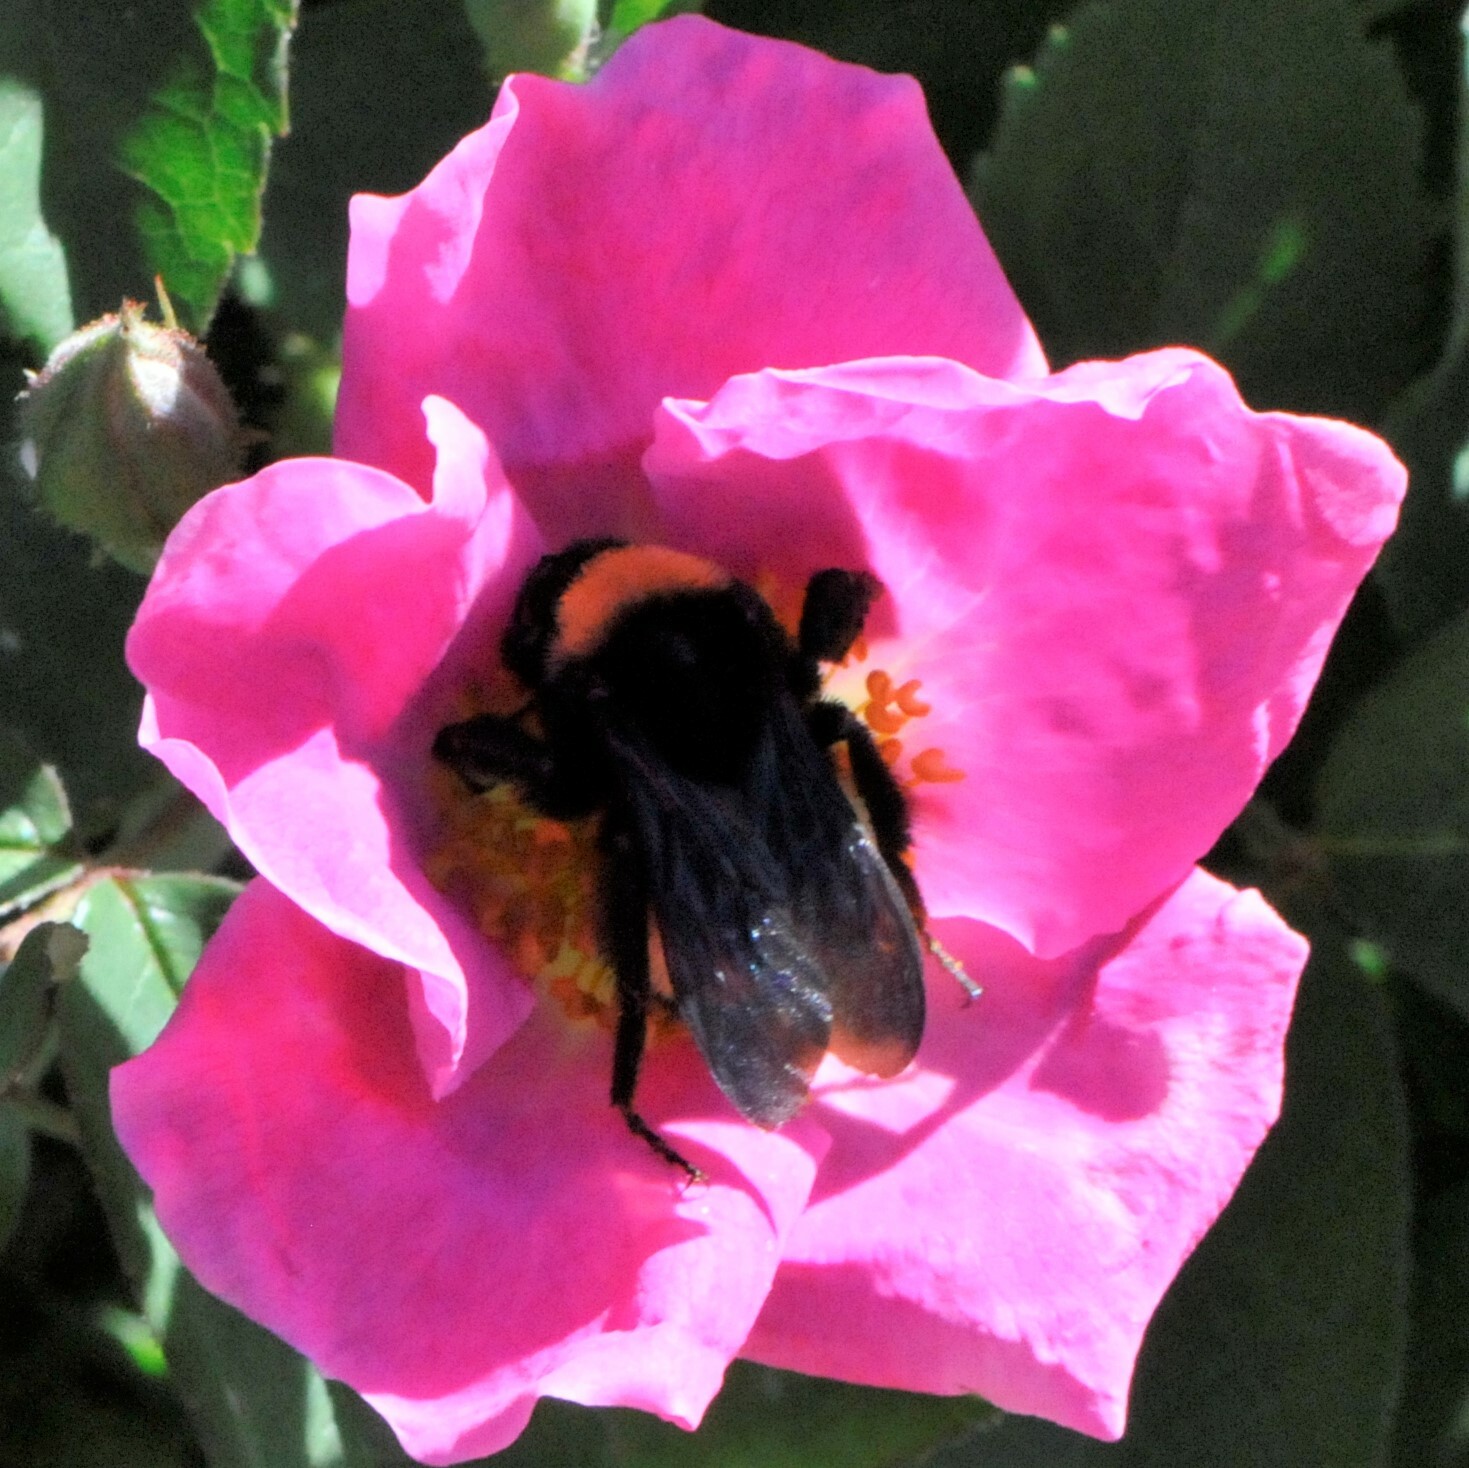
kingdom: Animalia
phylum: Arthropoda
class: Insecta
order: Hymenoptera
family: Apidae
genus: Bombus
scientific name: Bombus pensylvanicus
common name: Bumble bee
